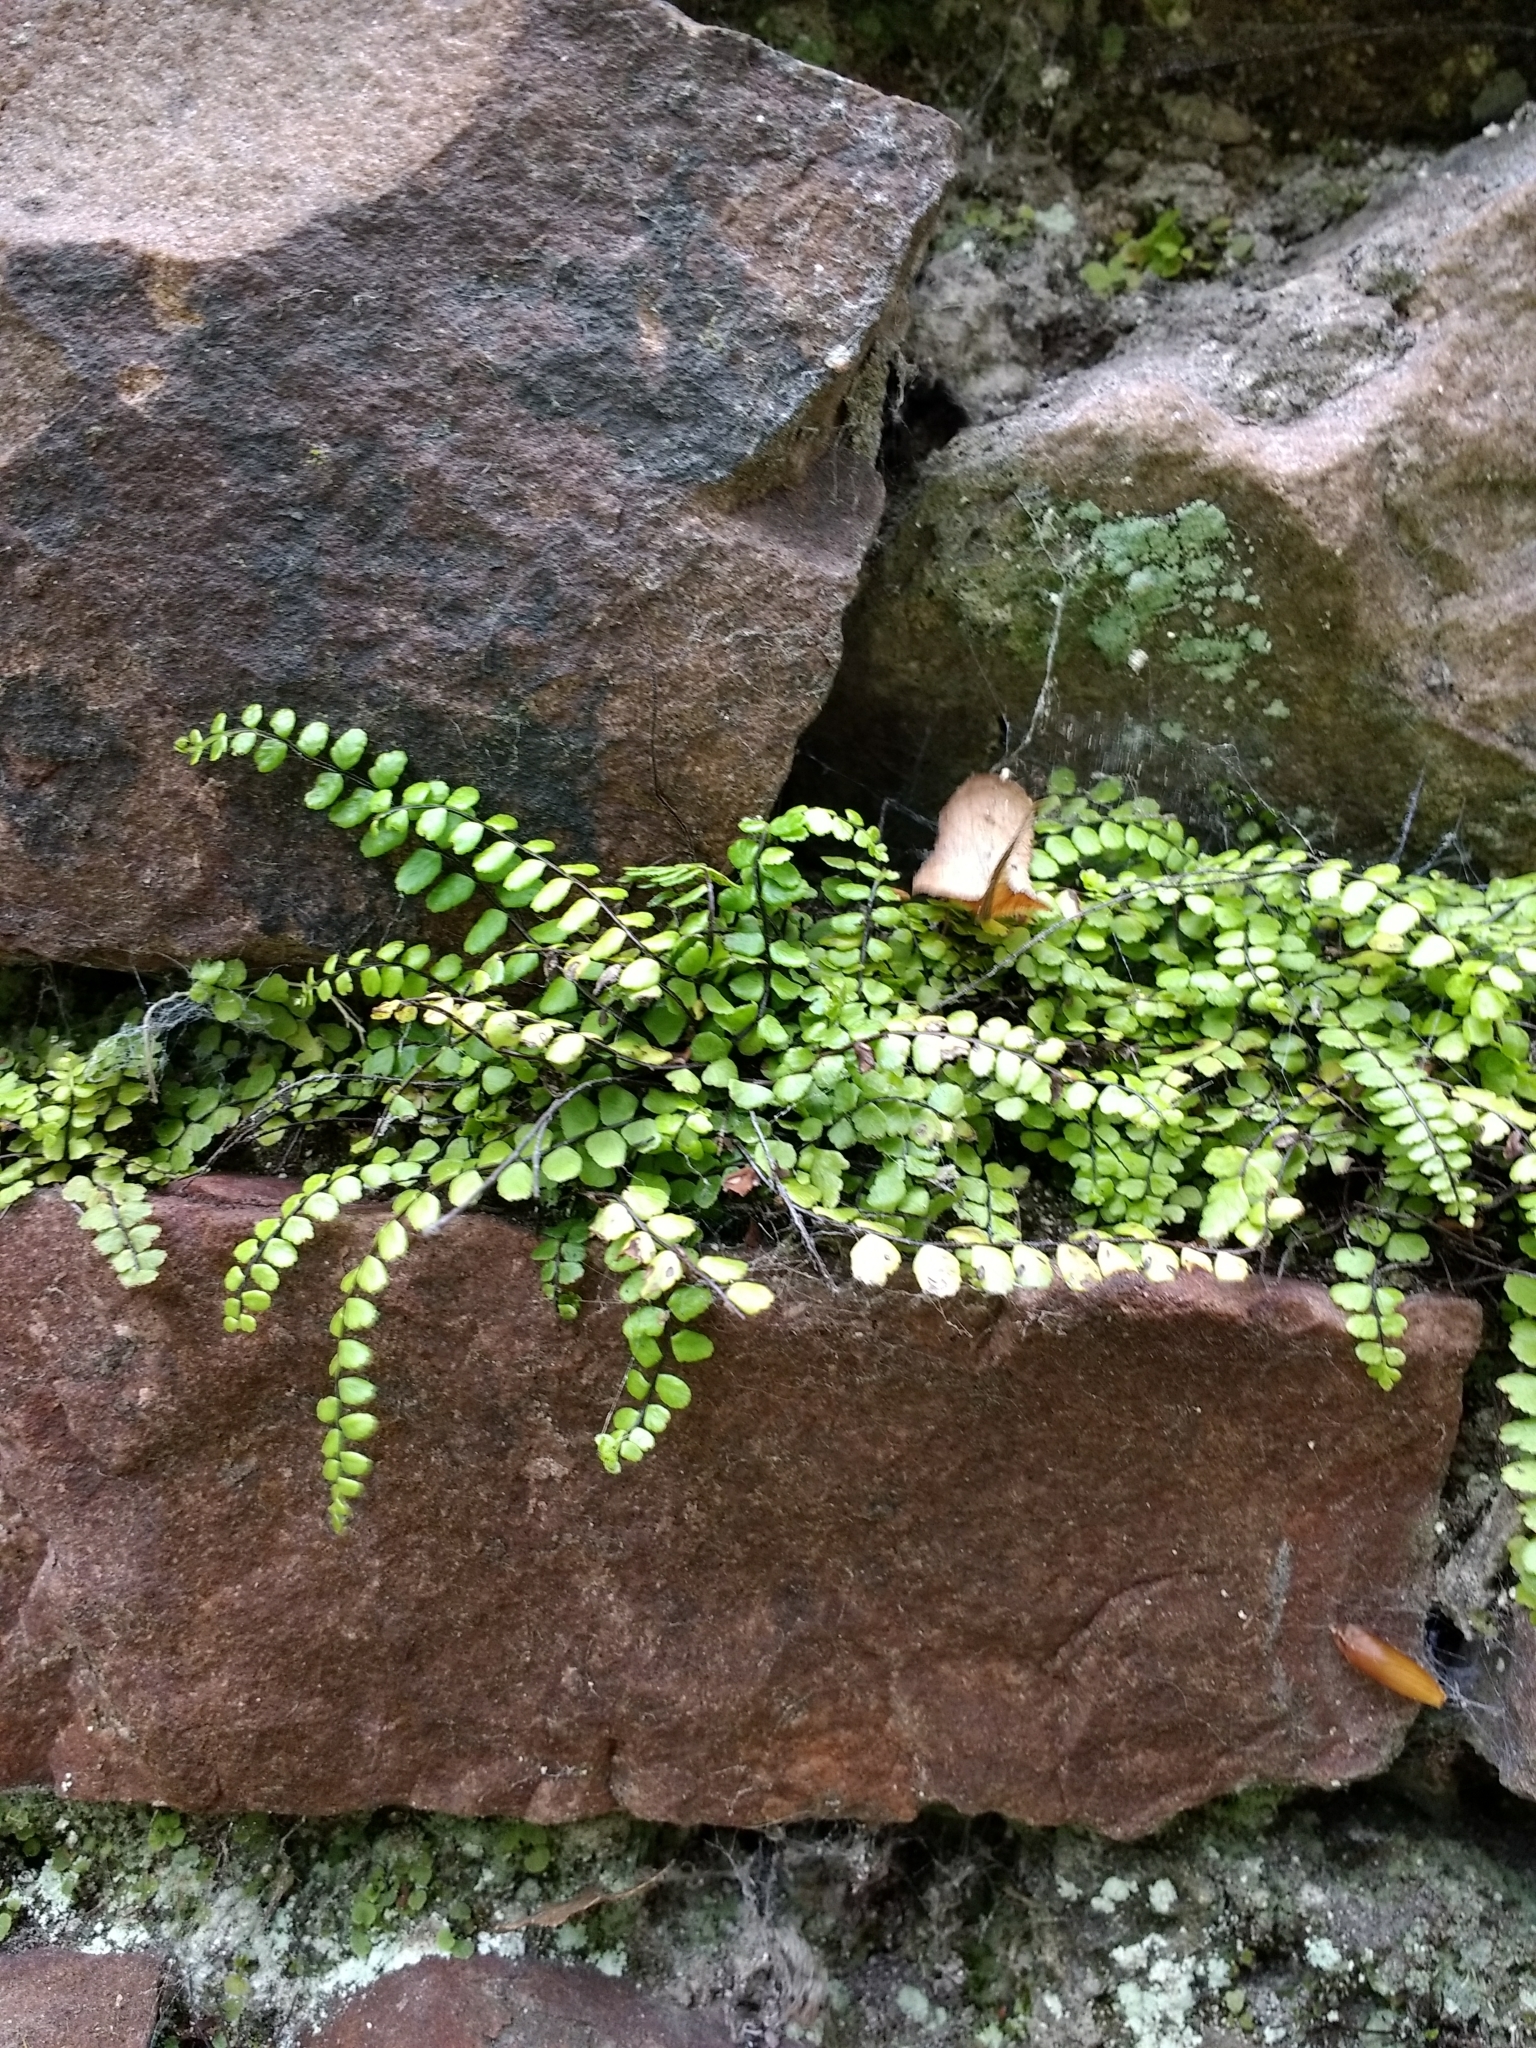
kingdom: Plantae
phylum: Tracheophyta
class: Polypodiopsida
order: Polypodiales
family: Aspleniaceae
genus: Asplenium
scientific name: Asplenium trichomanes
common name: Maidenhair spleenwort
